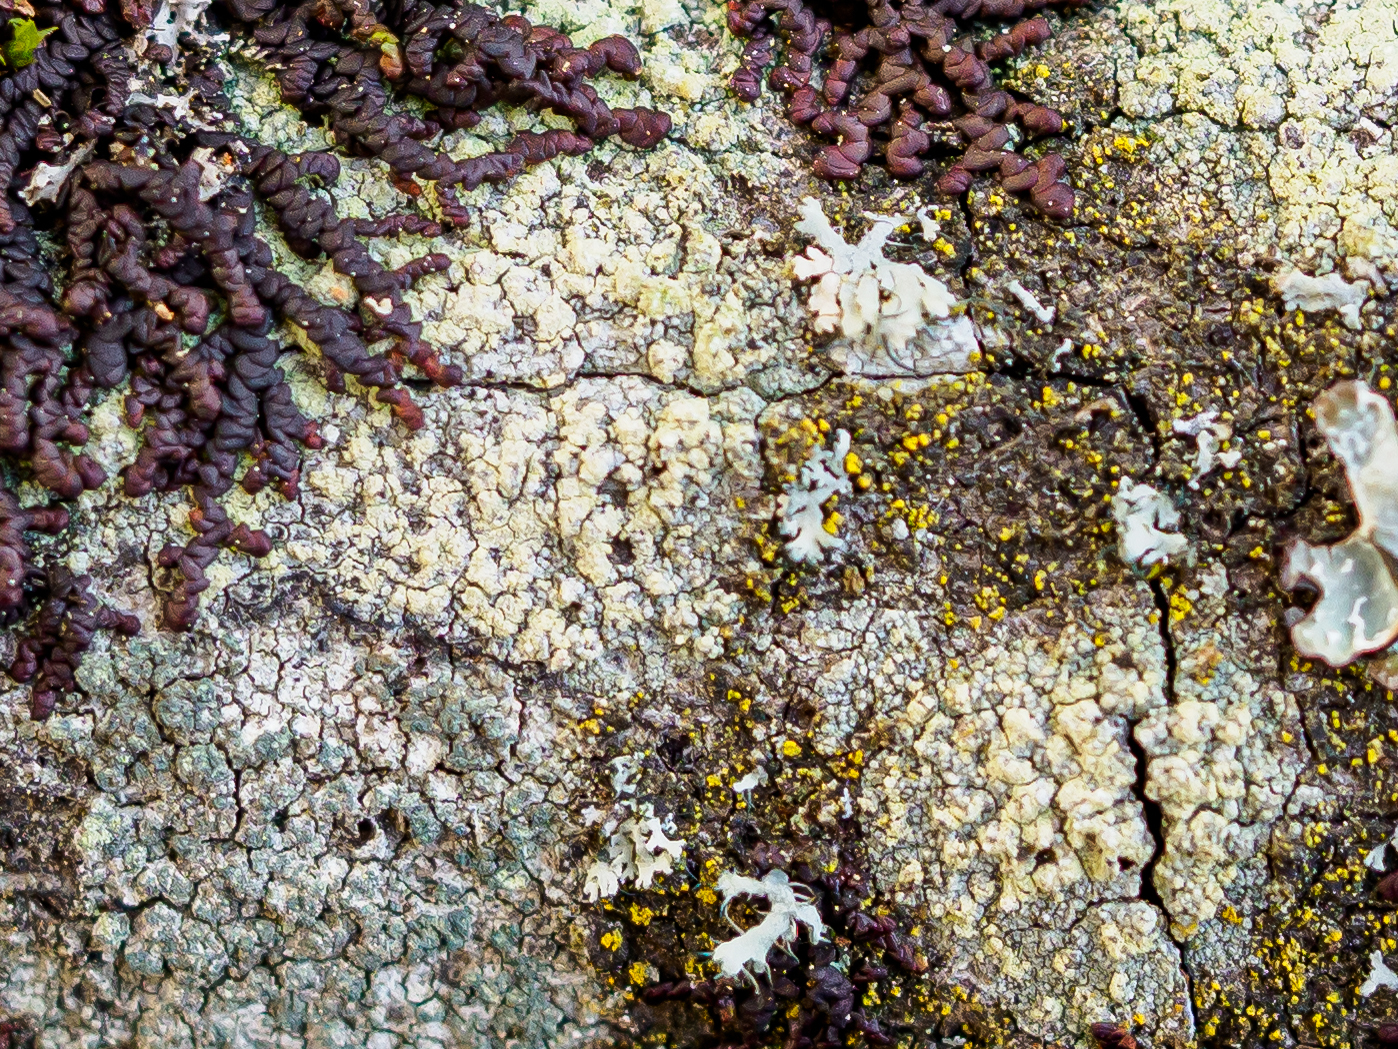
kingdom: Fungi
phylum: Ascomycota
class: Lecanoromycetes
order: Caliciales
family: Caliciaceae
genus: Buellia
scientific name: Buellia griseovirens
